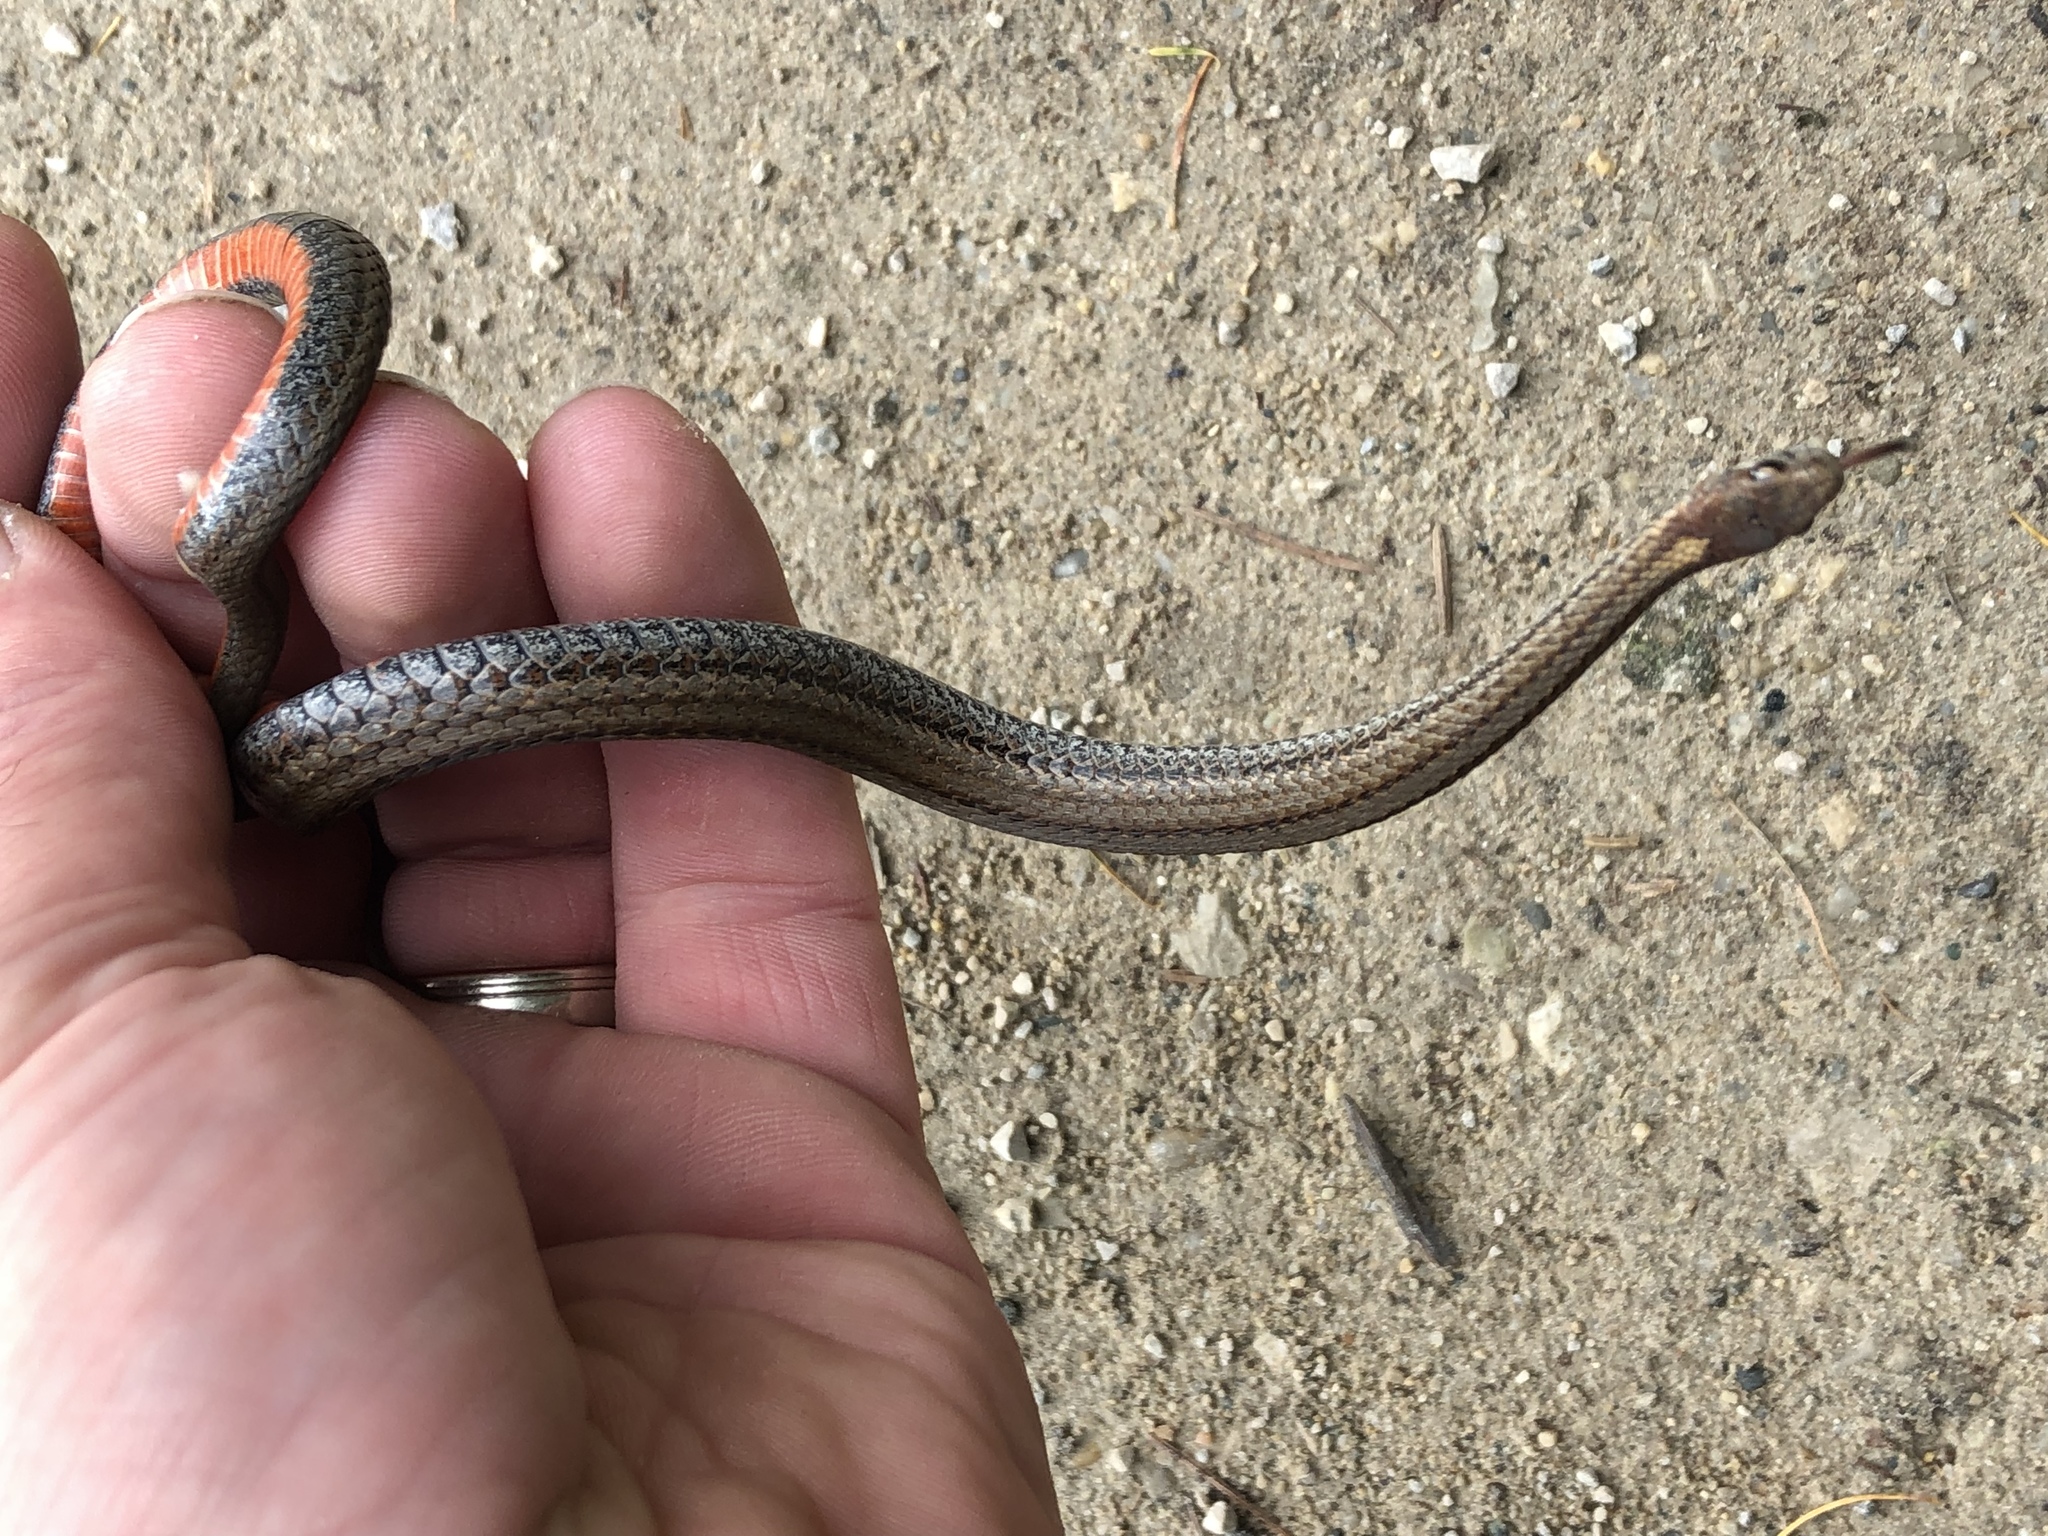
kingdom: Animalia
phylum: Chordata
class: Squamata
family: Colubridae
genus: Storeria
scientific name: Storeria occipitomaculata
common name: Redbelly snake
